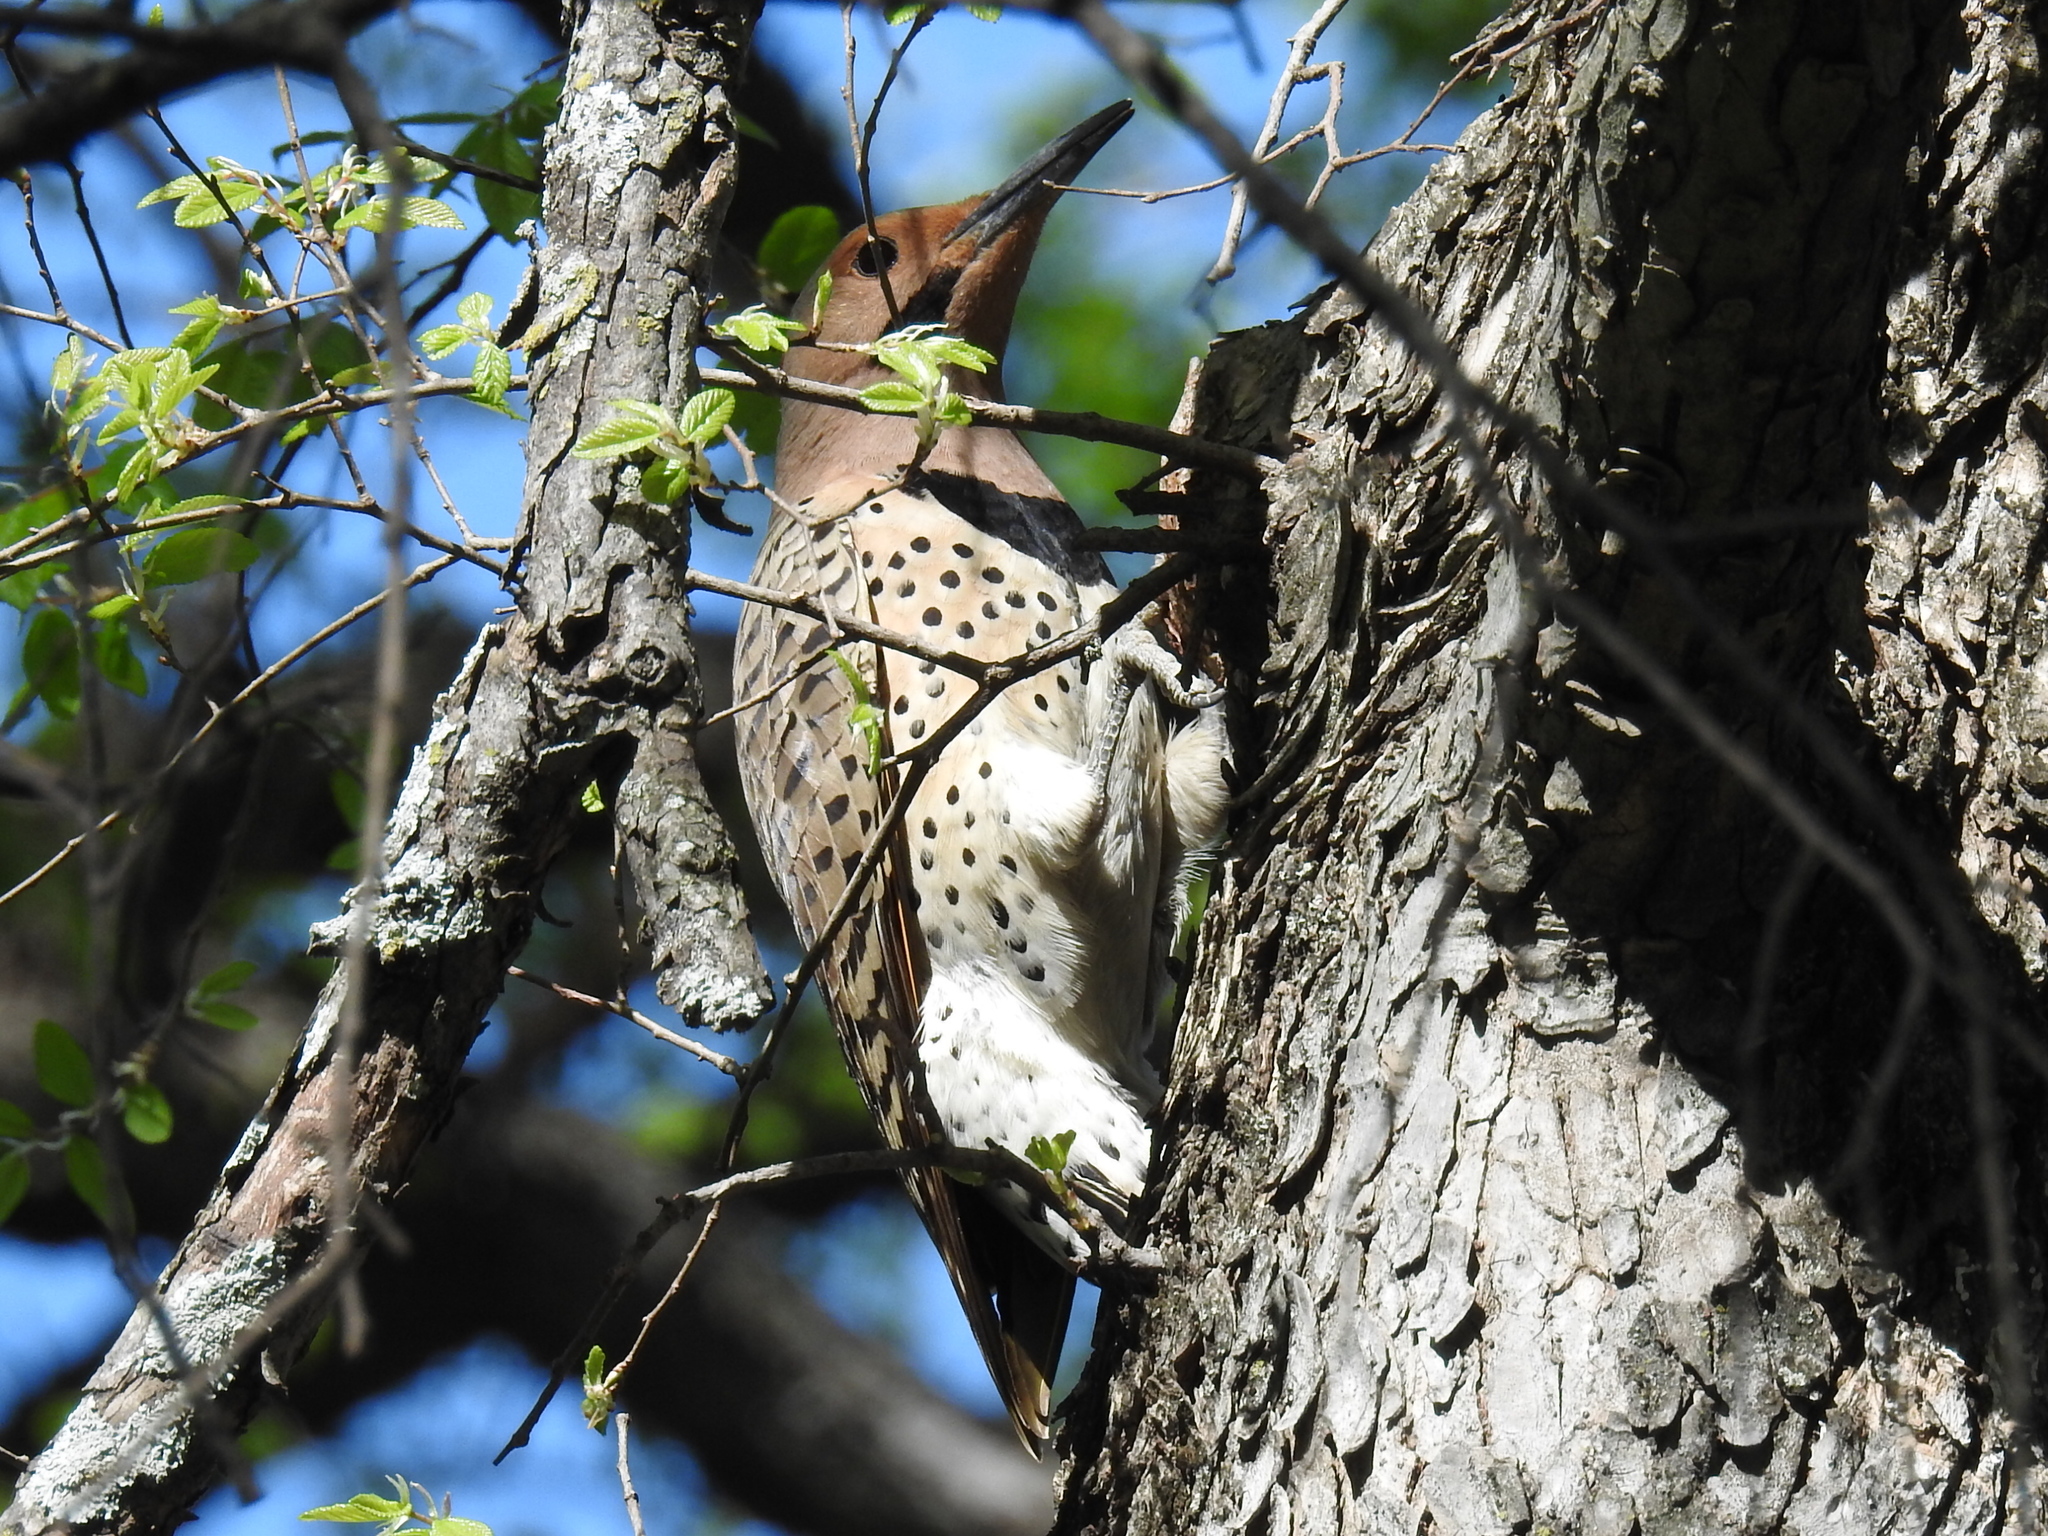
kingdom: Animalia
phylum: Chordata
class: Aves
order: Piciformes
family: Picidae
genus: Colaptes
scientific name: Colaptes auratus
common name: Northern flicker
